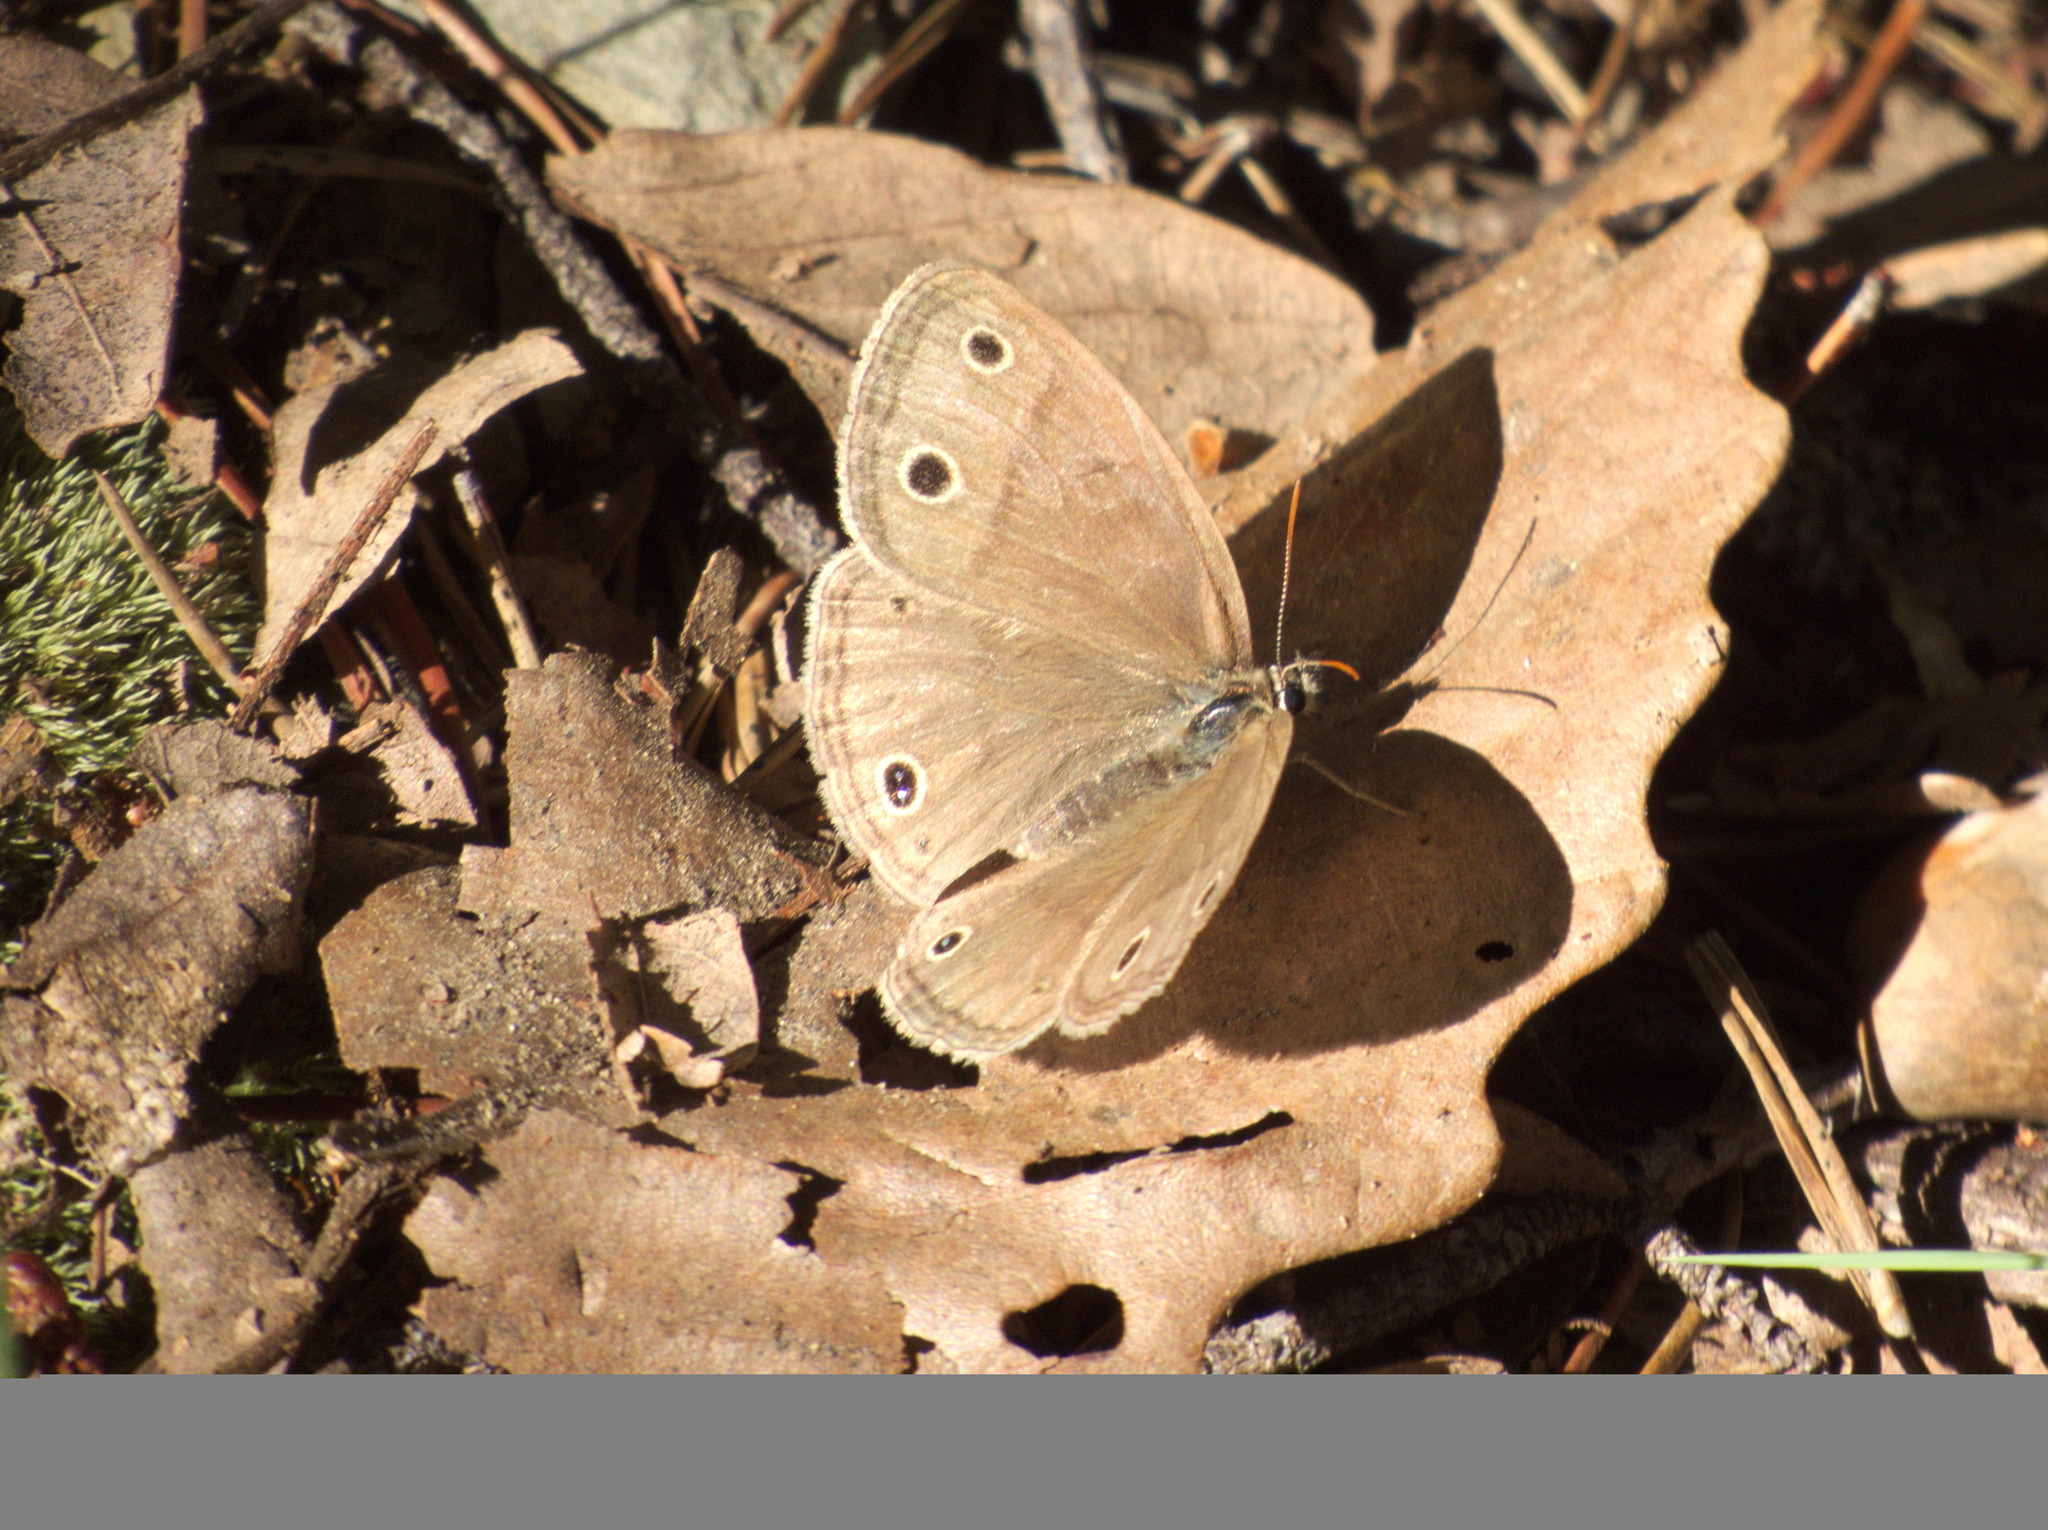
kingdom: Animalia
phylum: Arthropoda
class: Insecta
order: Lepidoptera
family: Nymphalidae
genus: Euptychia
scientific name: Euptychia cymela
